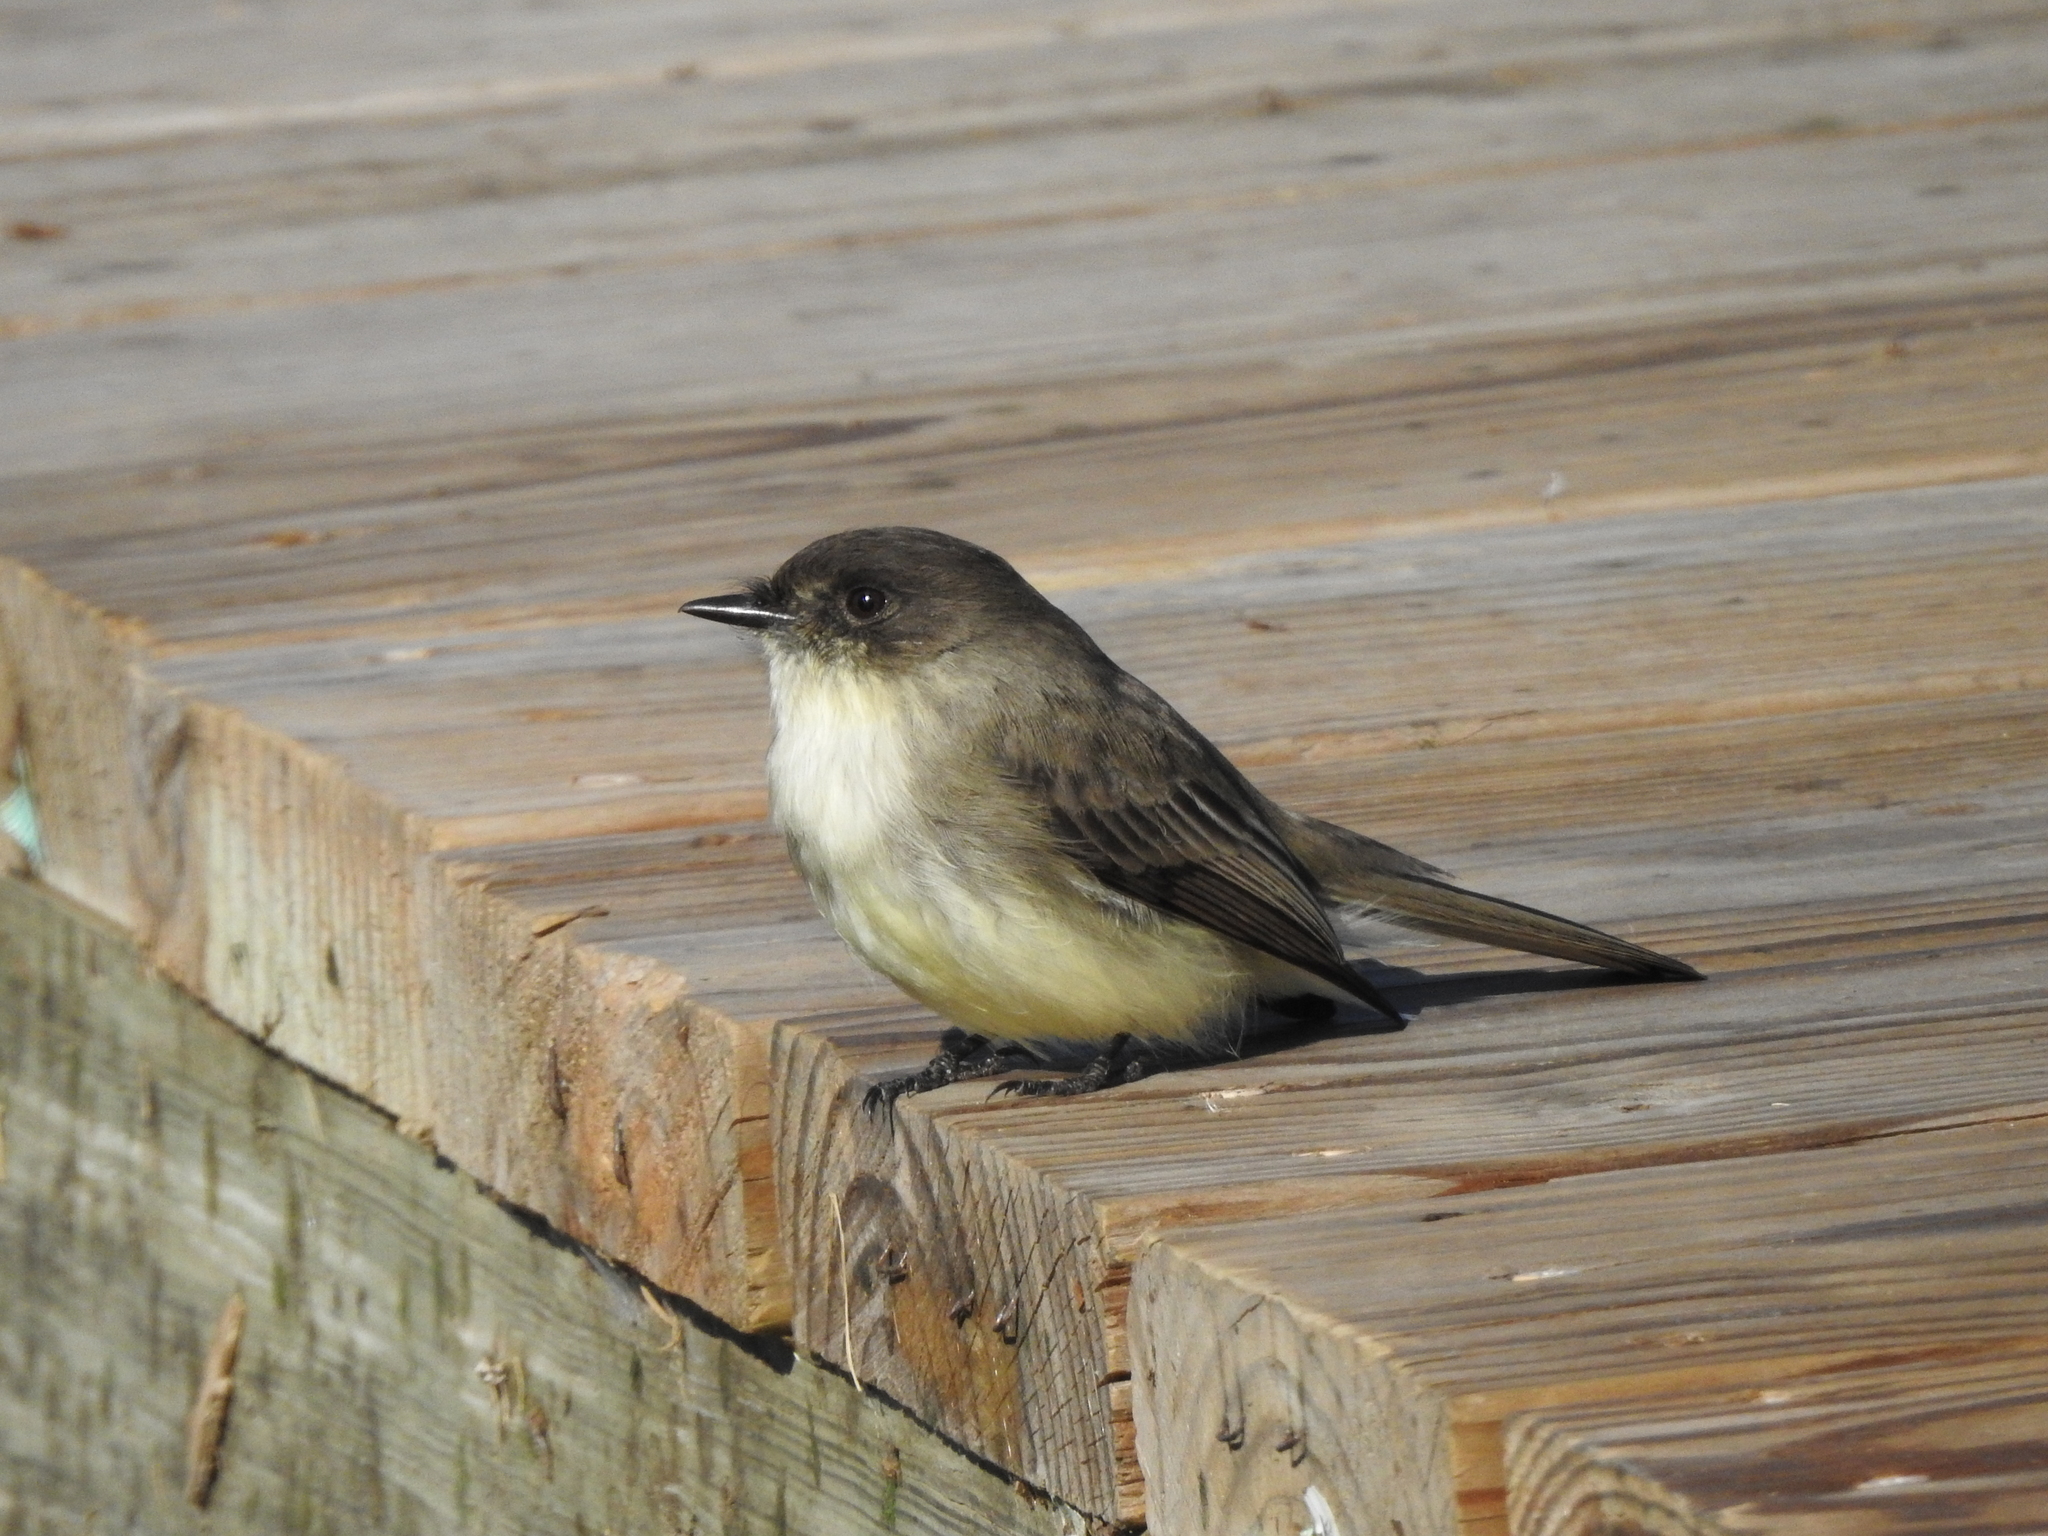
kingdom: Animalia
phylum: Chordata
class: Aves
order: Passeriformes
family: Tyrannidae
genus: Sayornis
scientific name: Sayornis phoebe
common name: Eastern phoebe
